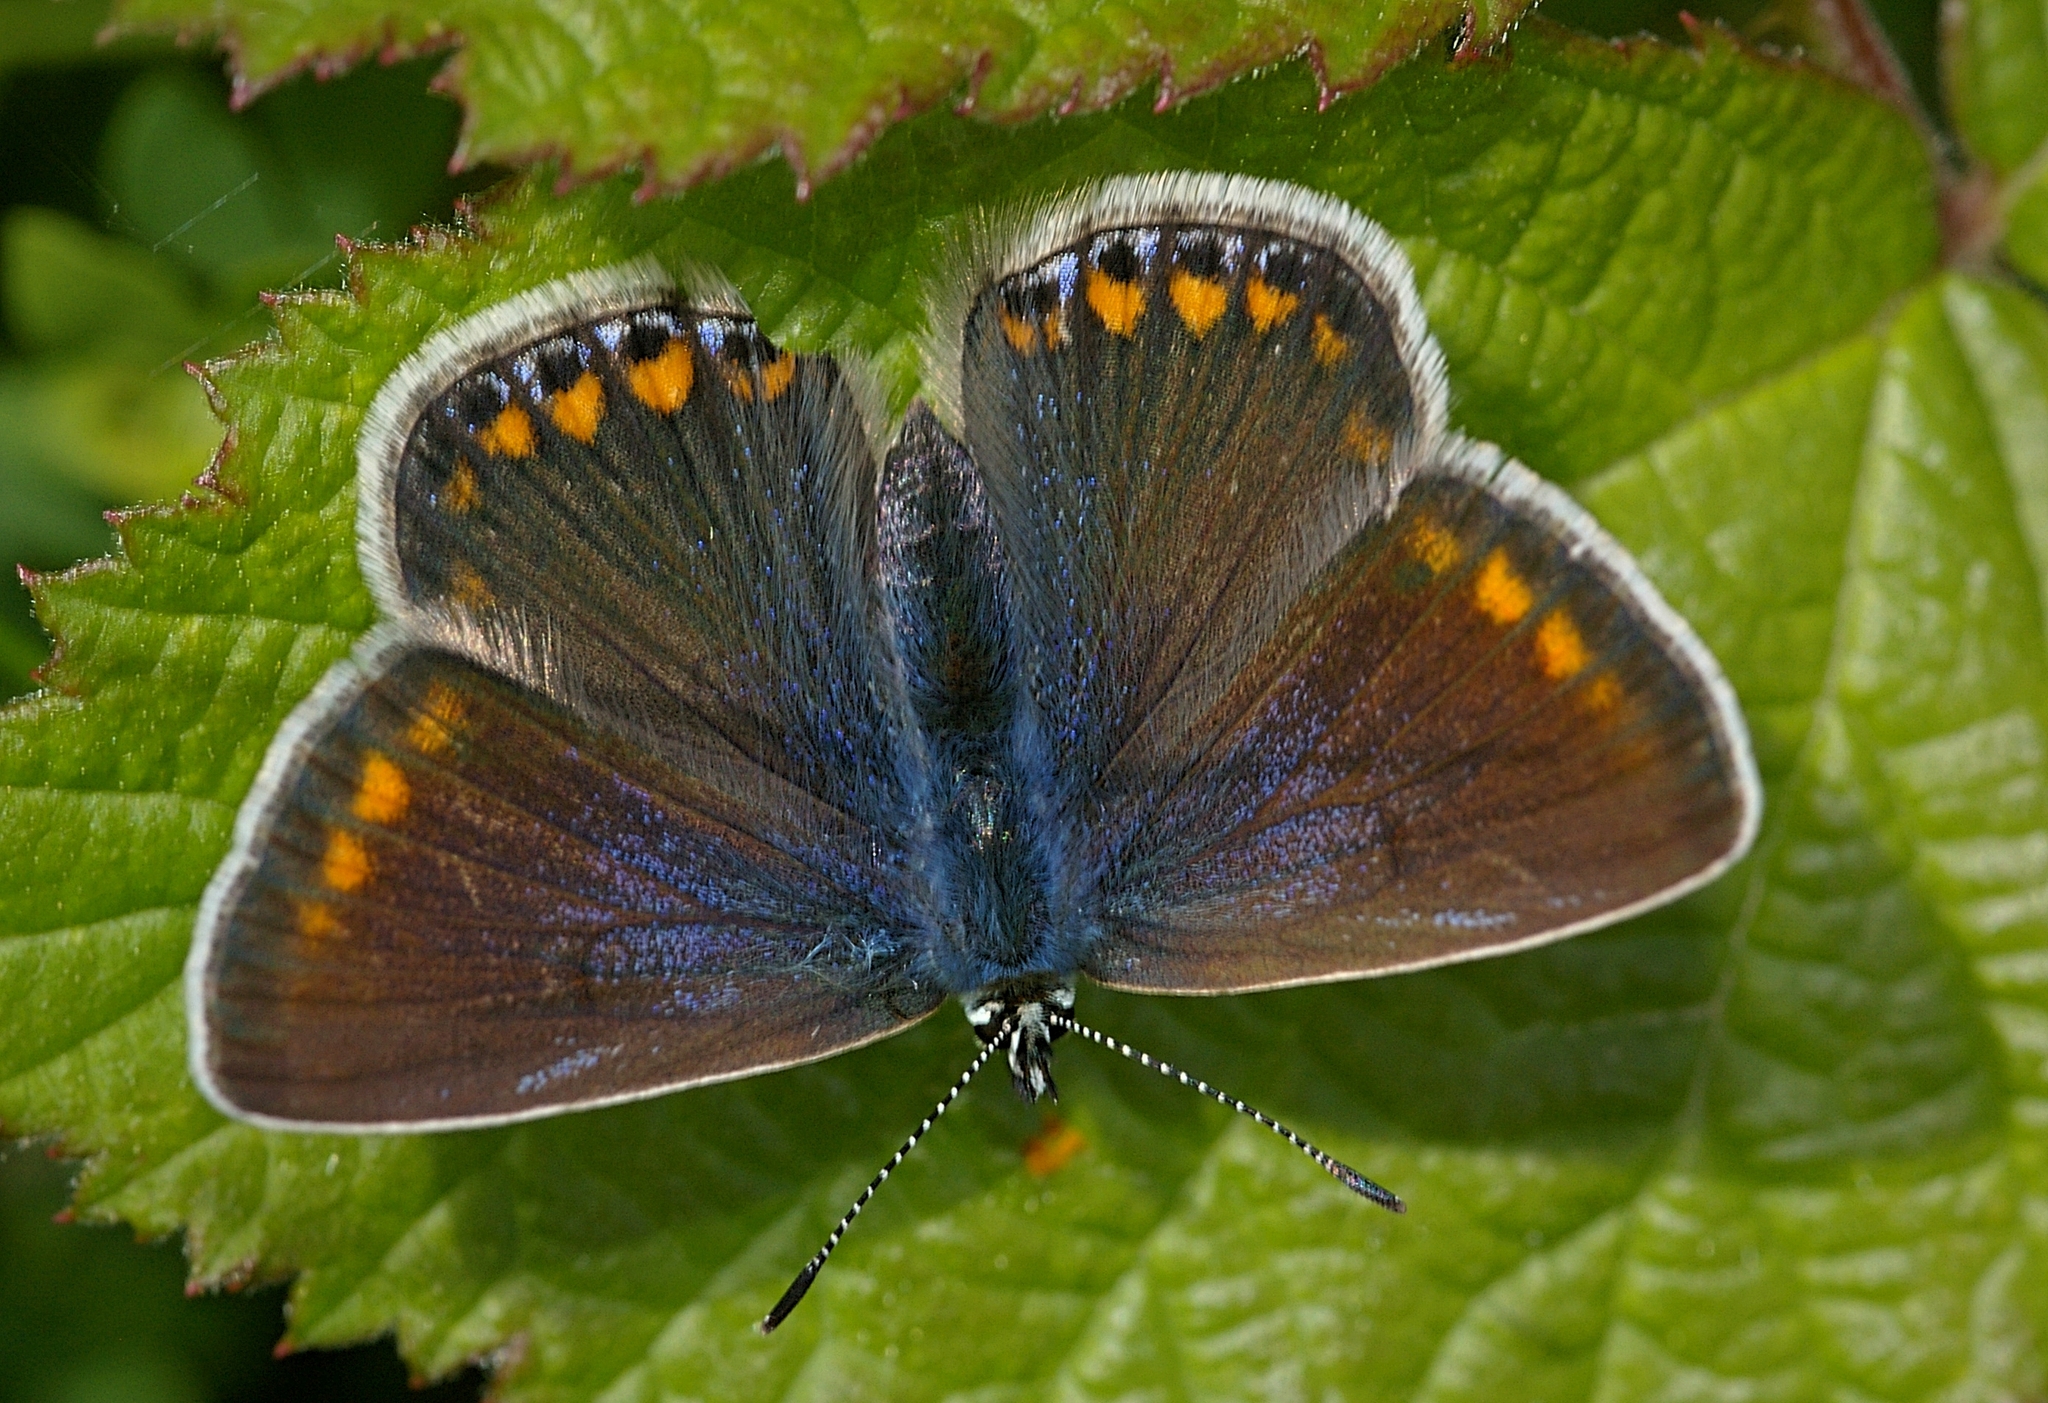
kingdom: Animalia
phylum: Arthropoda
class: Insecta
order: Lepidoptera
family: Lycaenidae
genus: Polyommatus
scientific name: Polyommatus icarus
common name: Common blue
